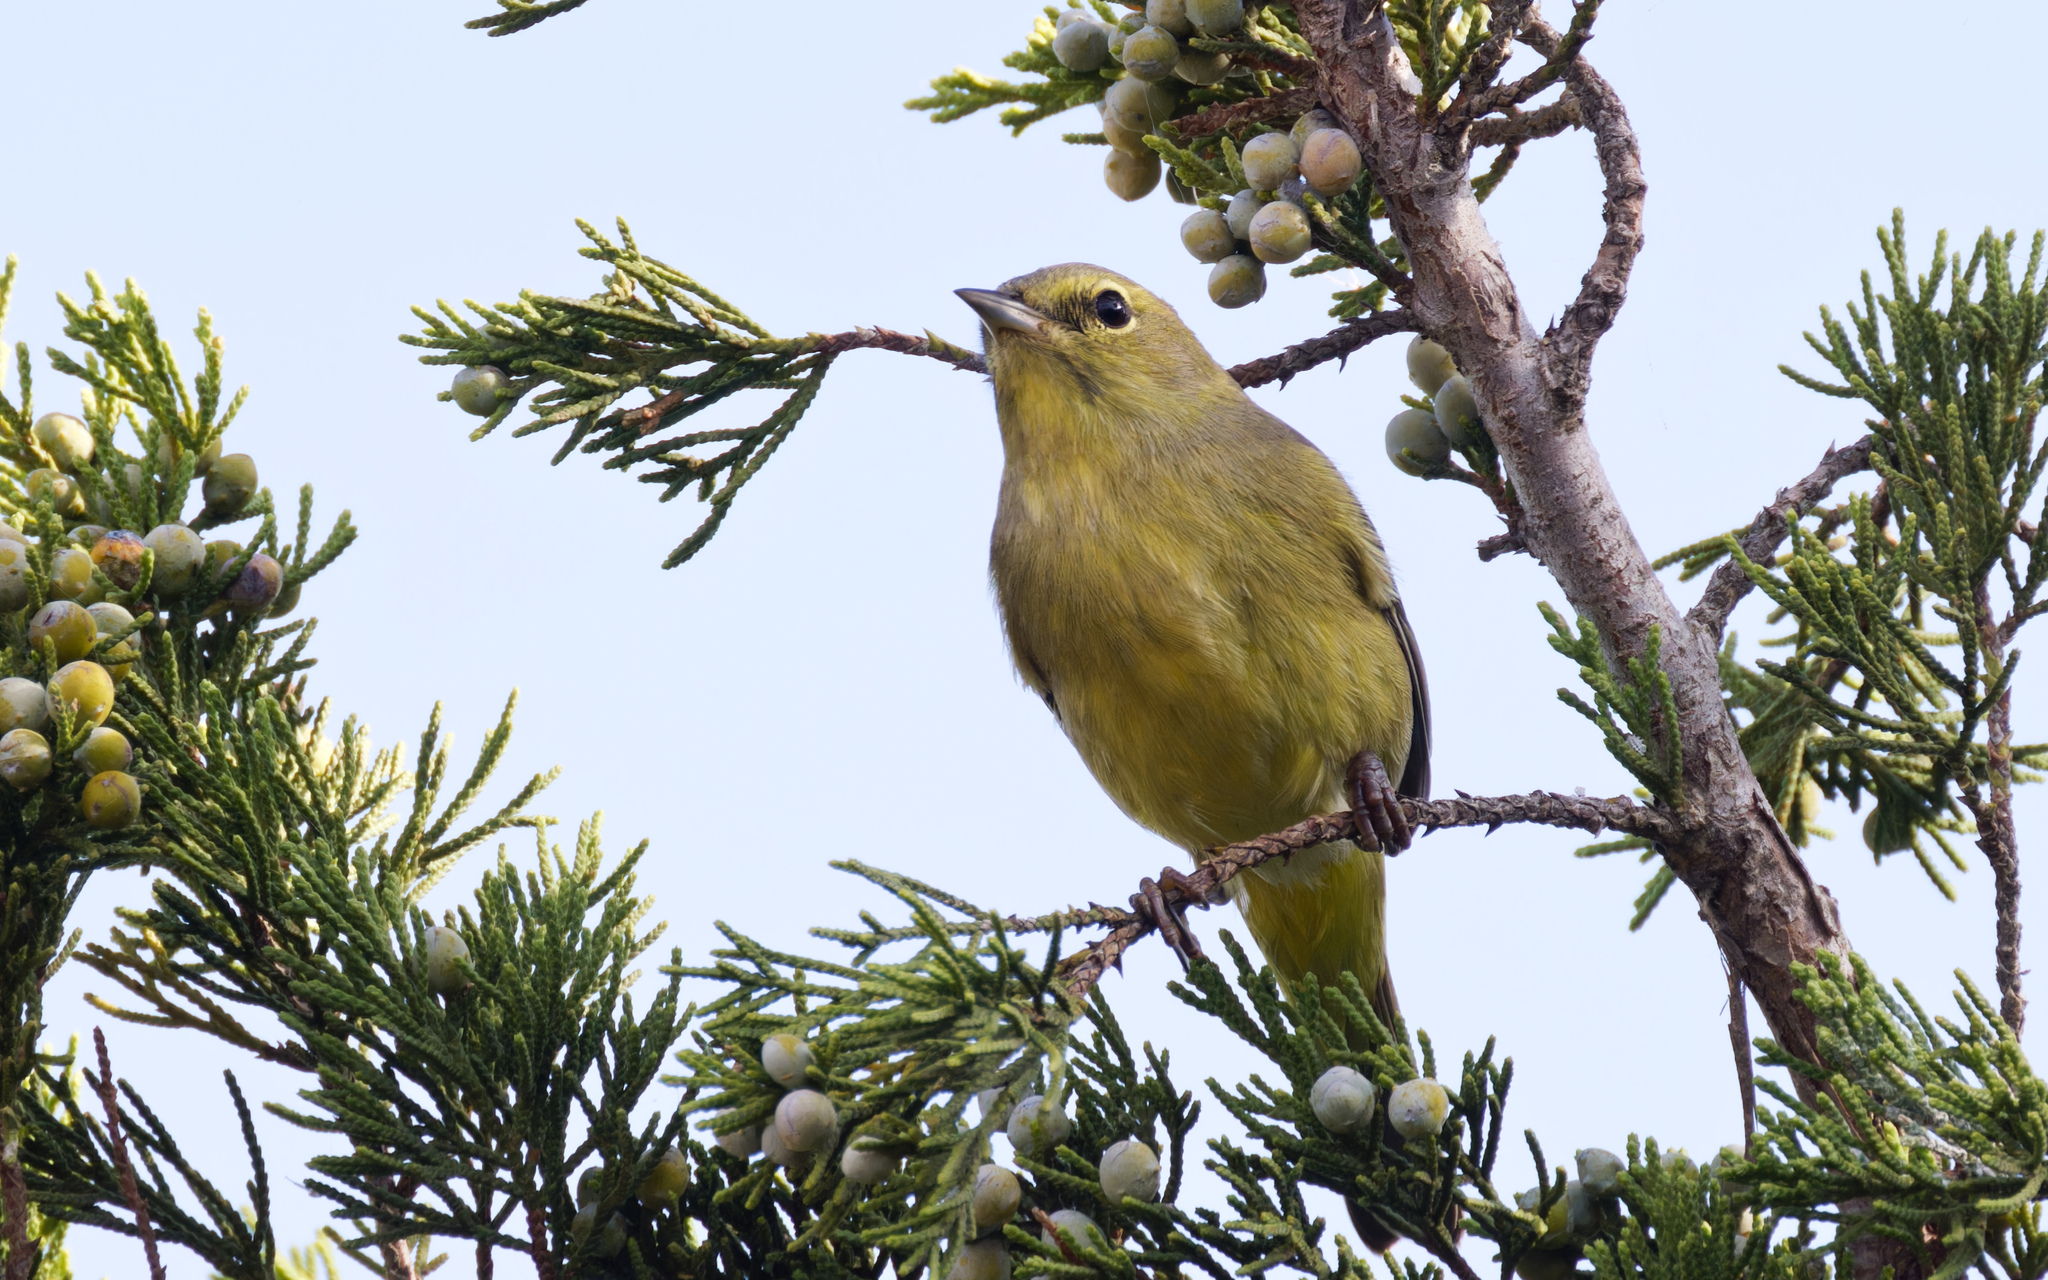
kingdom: Animalia
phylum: Chordata
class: Aves
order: Passeriformes
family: Parulidae
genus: Leiothlypis
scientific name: Leiothlypis celata
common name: Orange-crowned warbler
